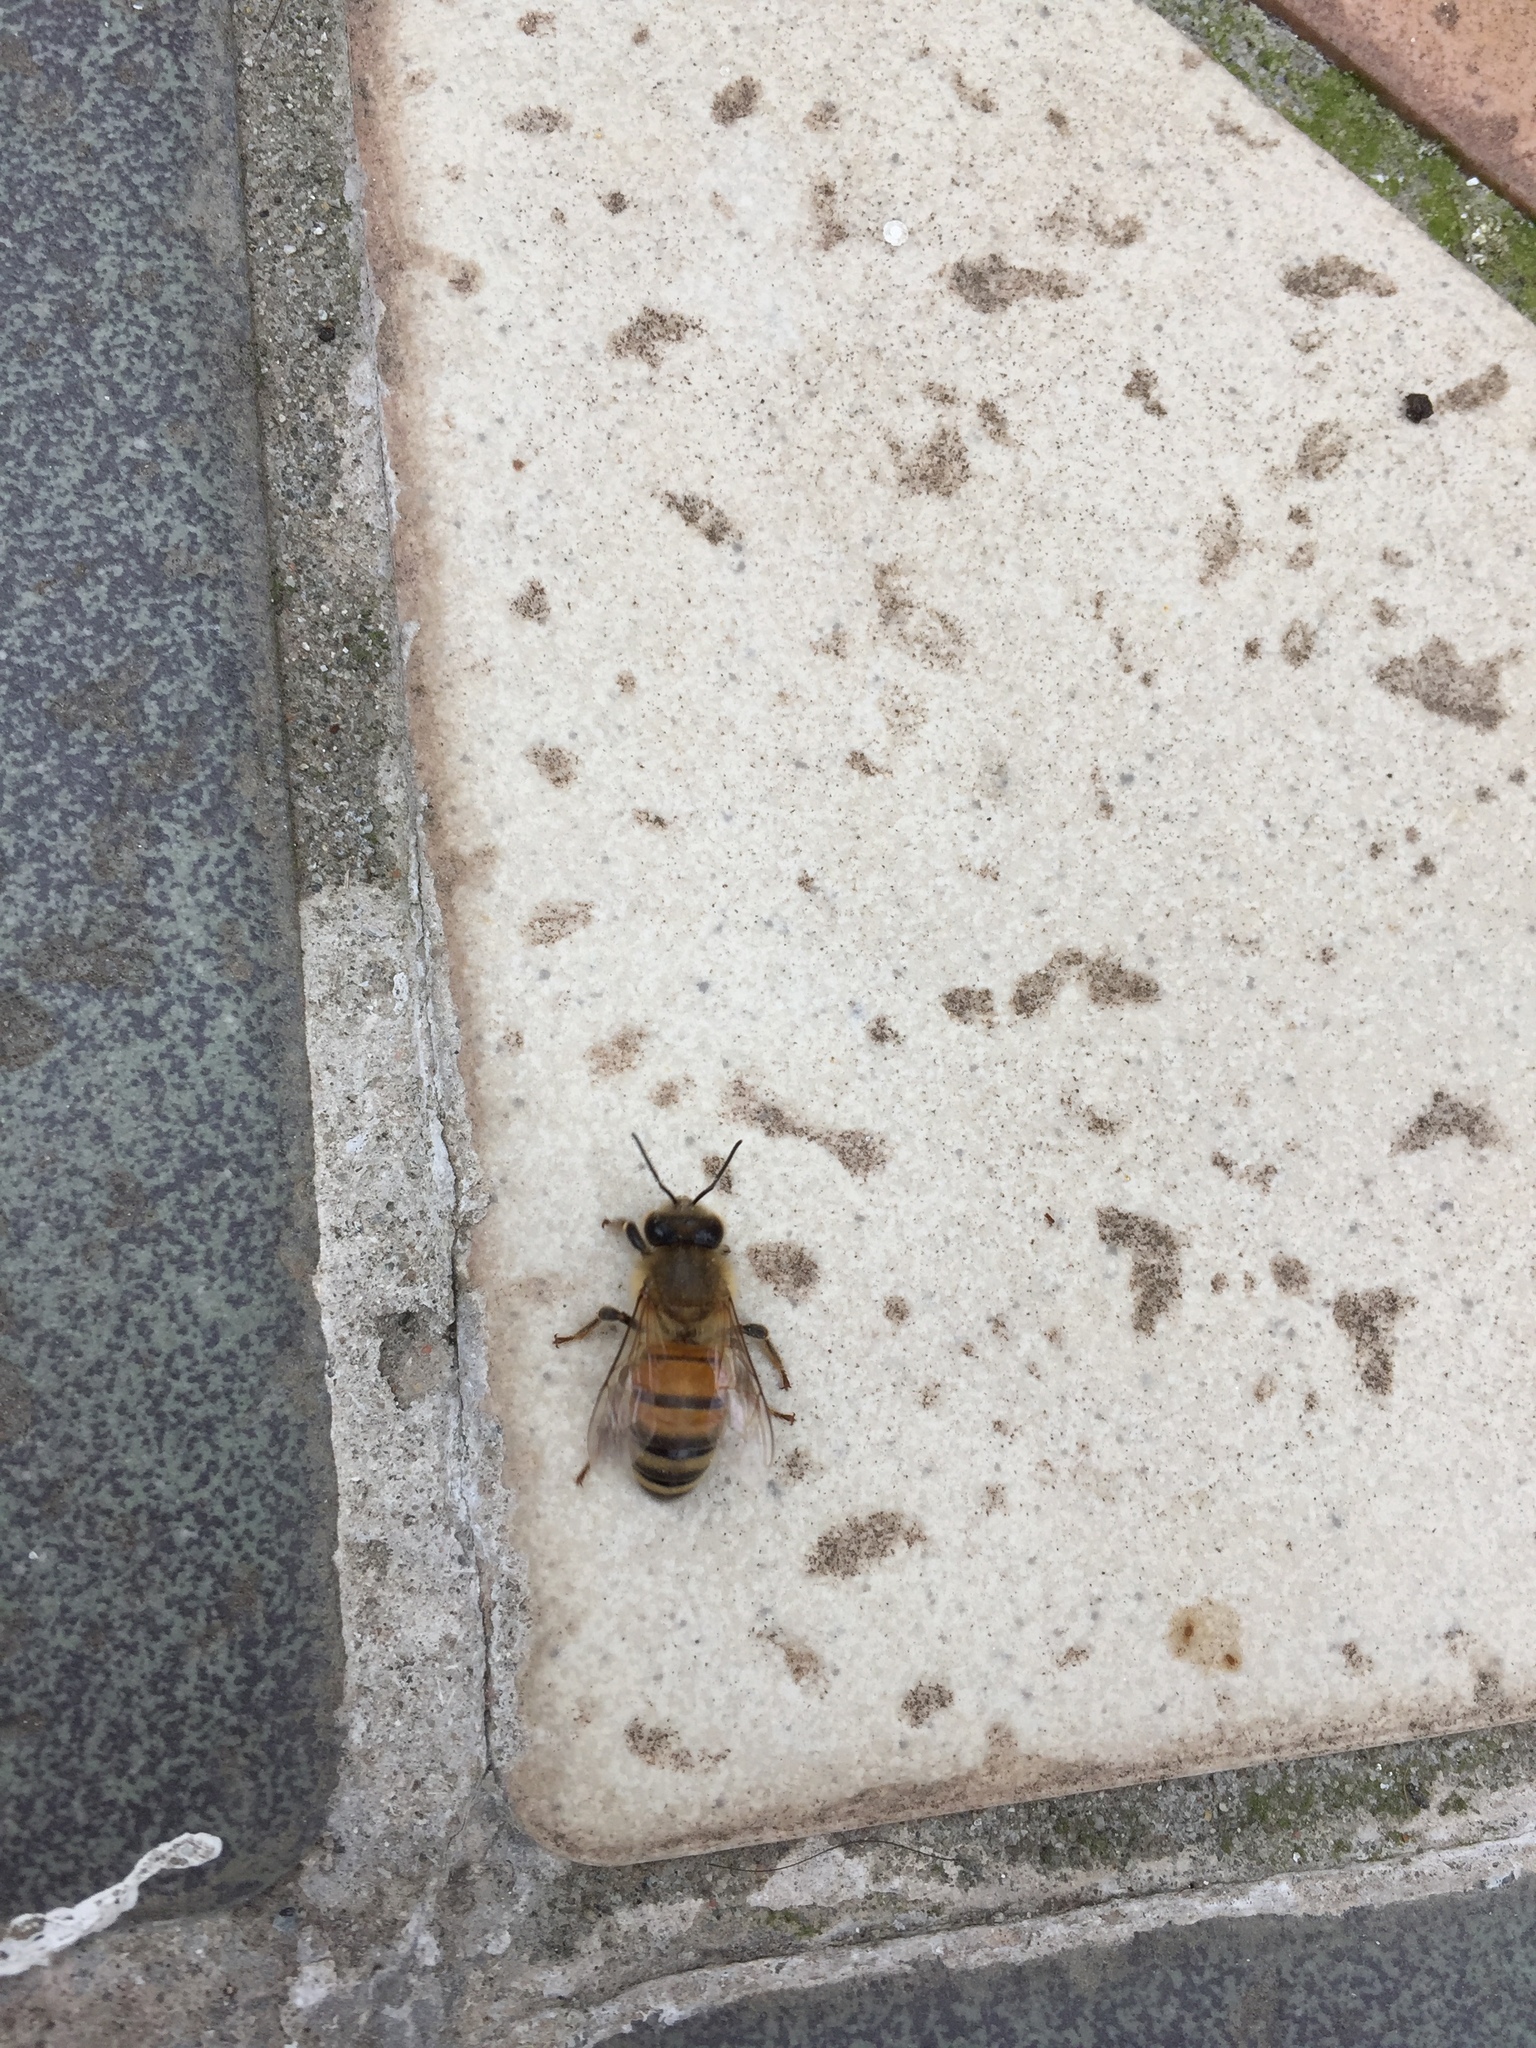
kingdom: Animalia
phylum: Arthropoda
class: Insecta
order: Hymenoptera
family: Apidae
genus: Apis
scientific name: Apis mellifera
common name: Honey bee
